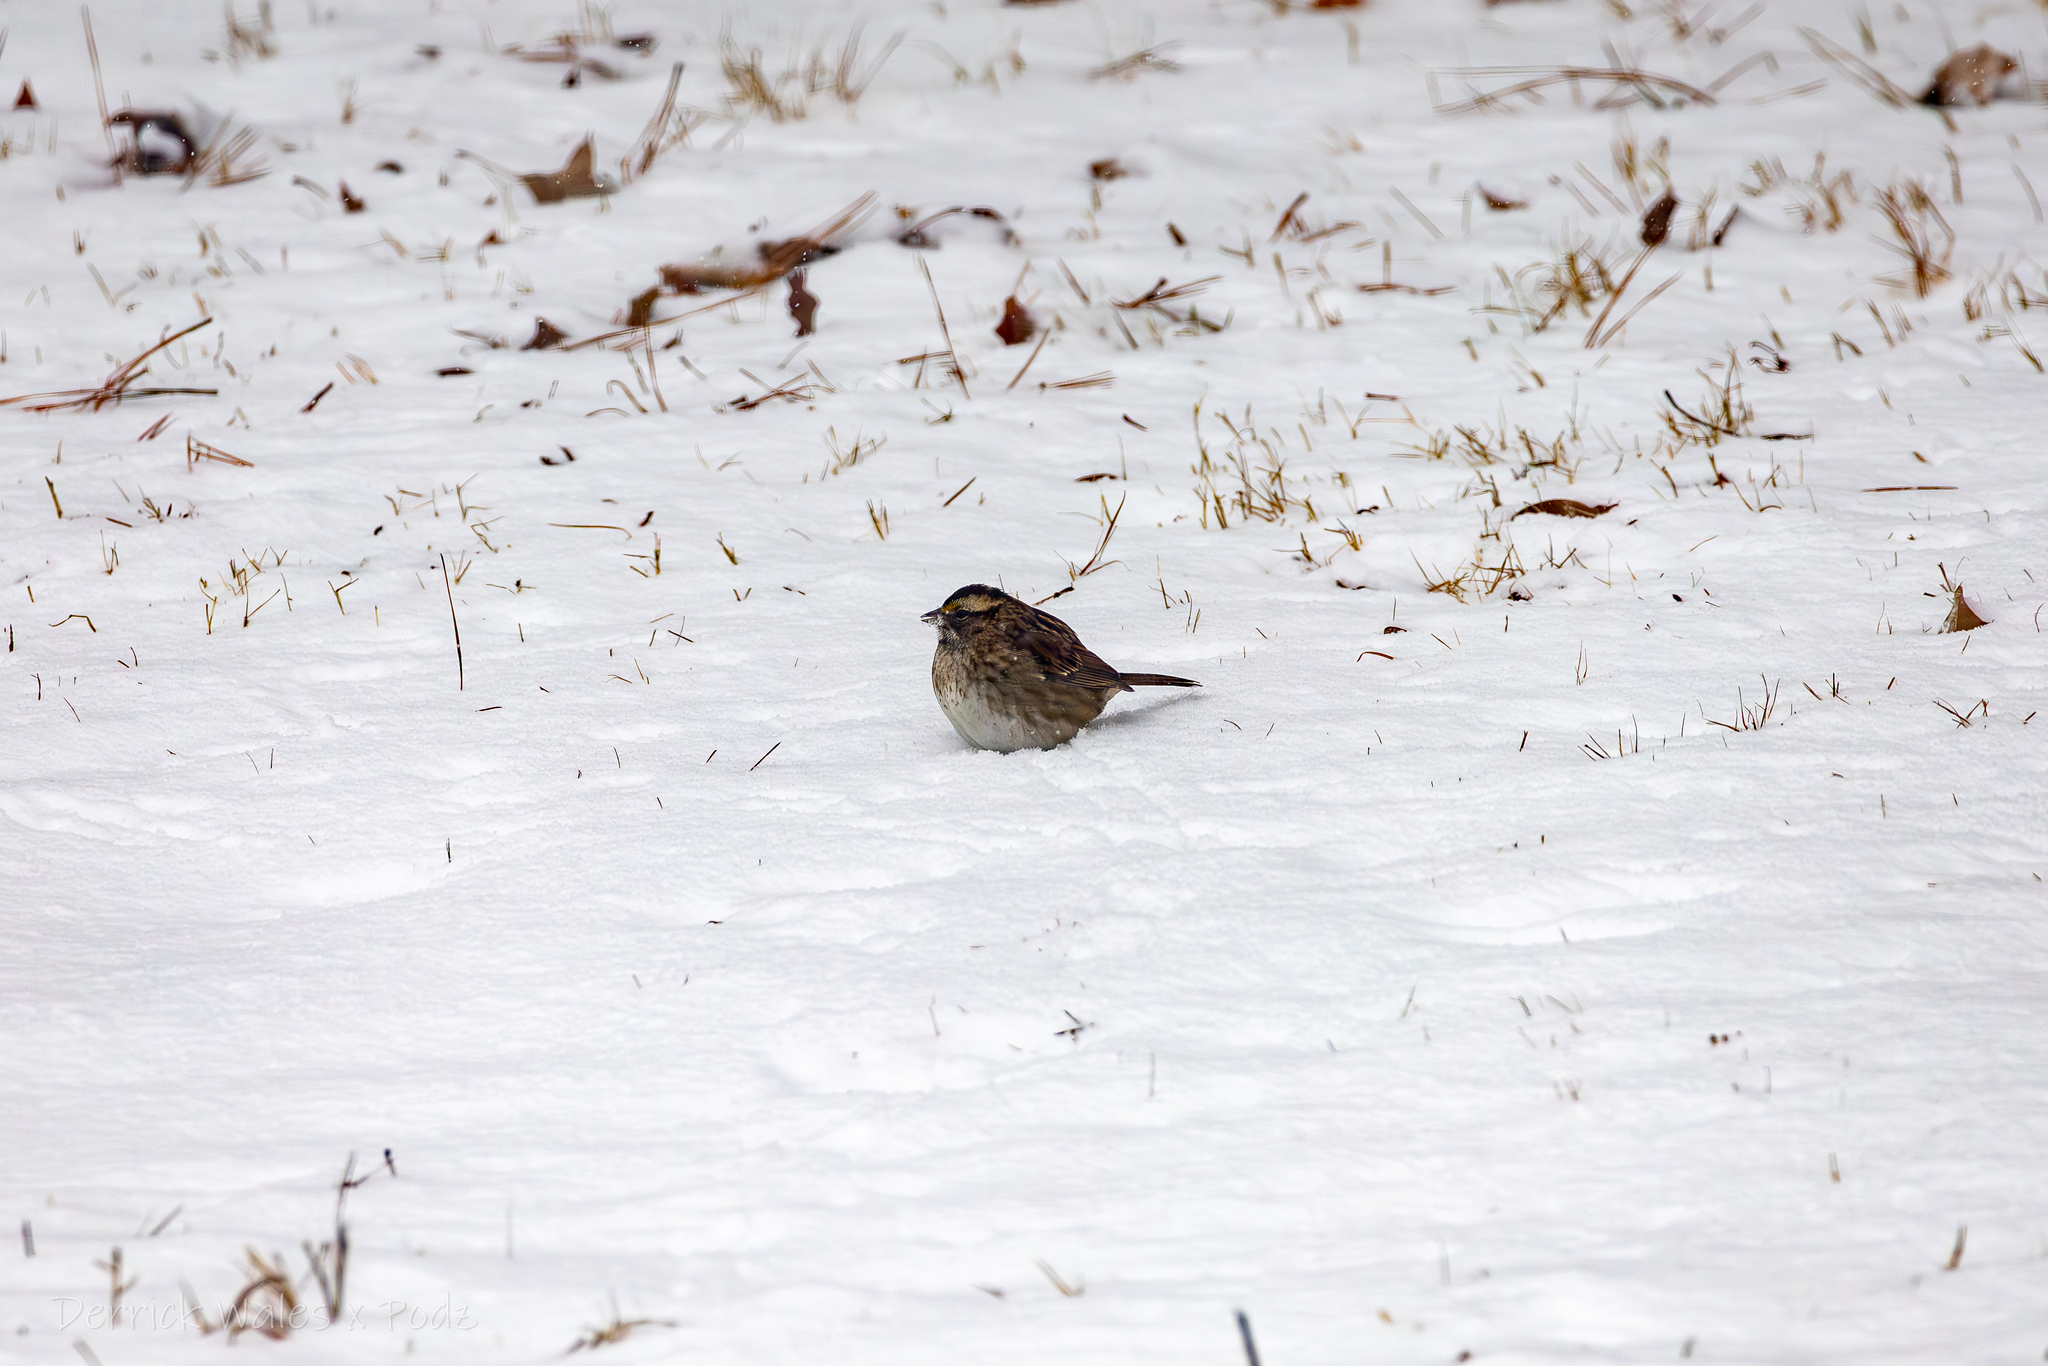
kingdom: Animalia
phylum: Chordata
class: Aves
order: Passeriformes
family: Passerellidae
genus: Zonotrichia
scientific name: Zonotrichia albicollis
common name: White-throated sparrow
